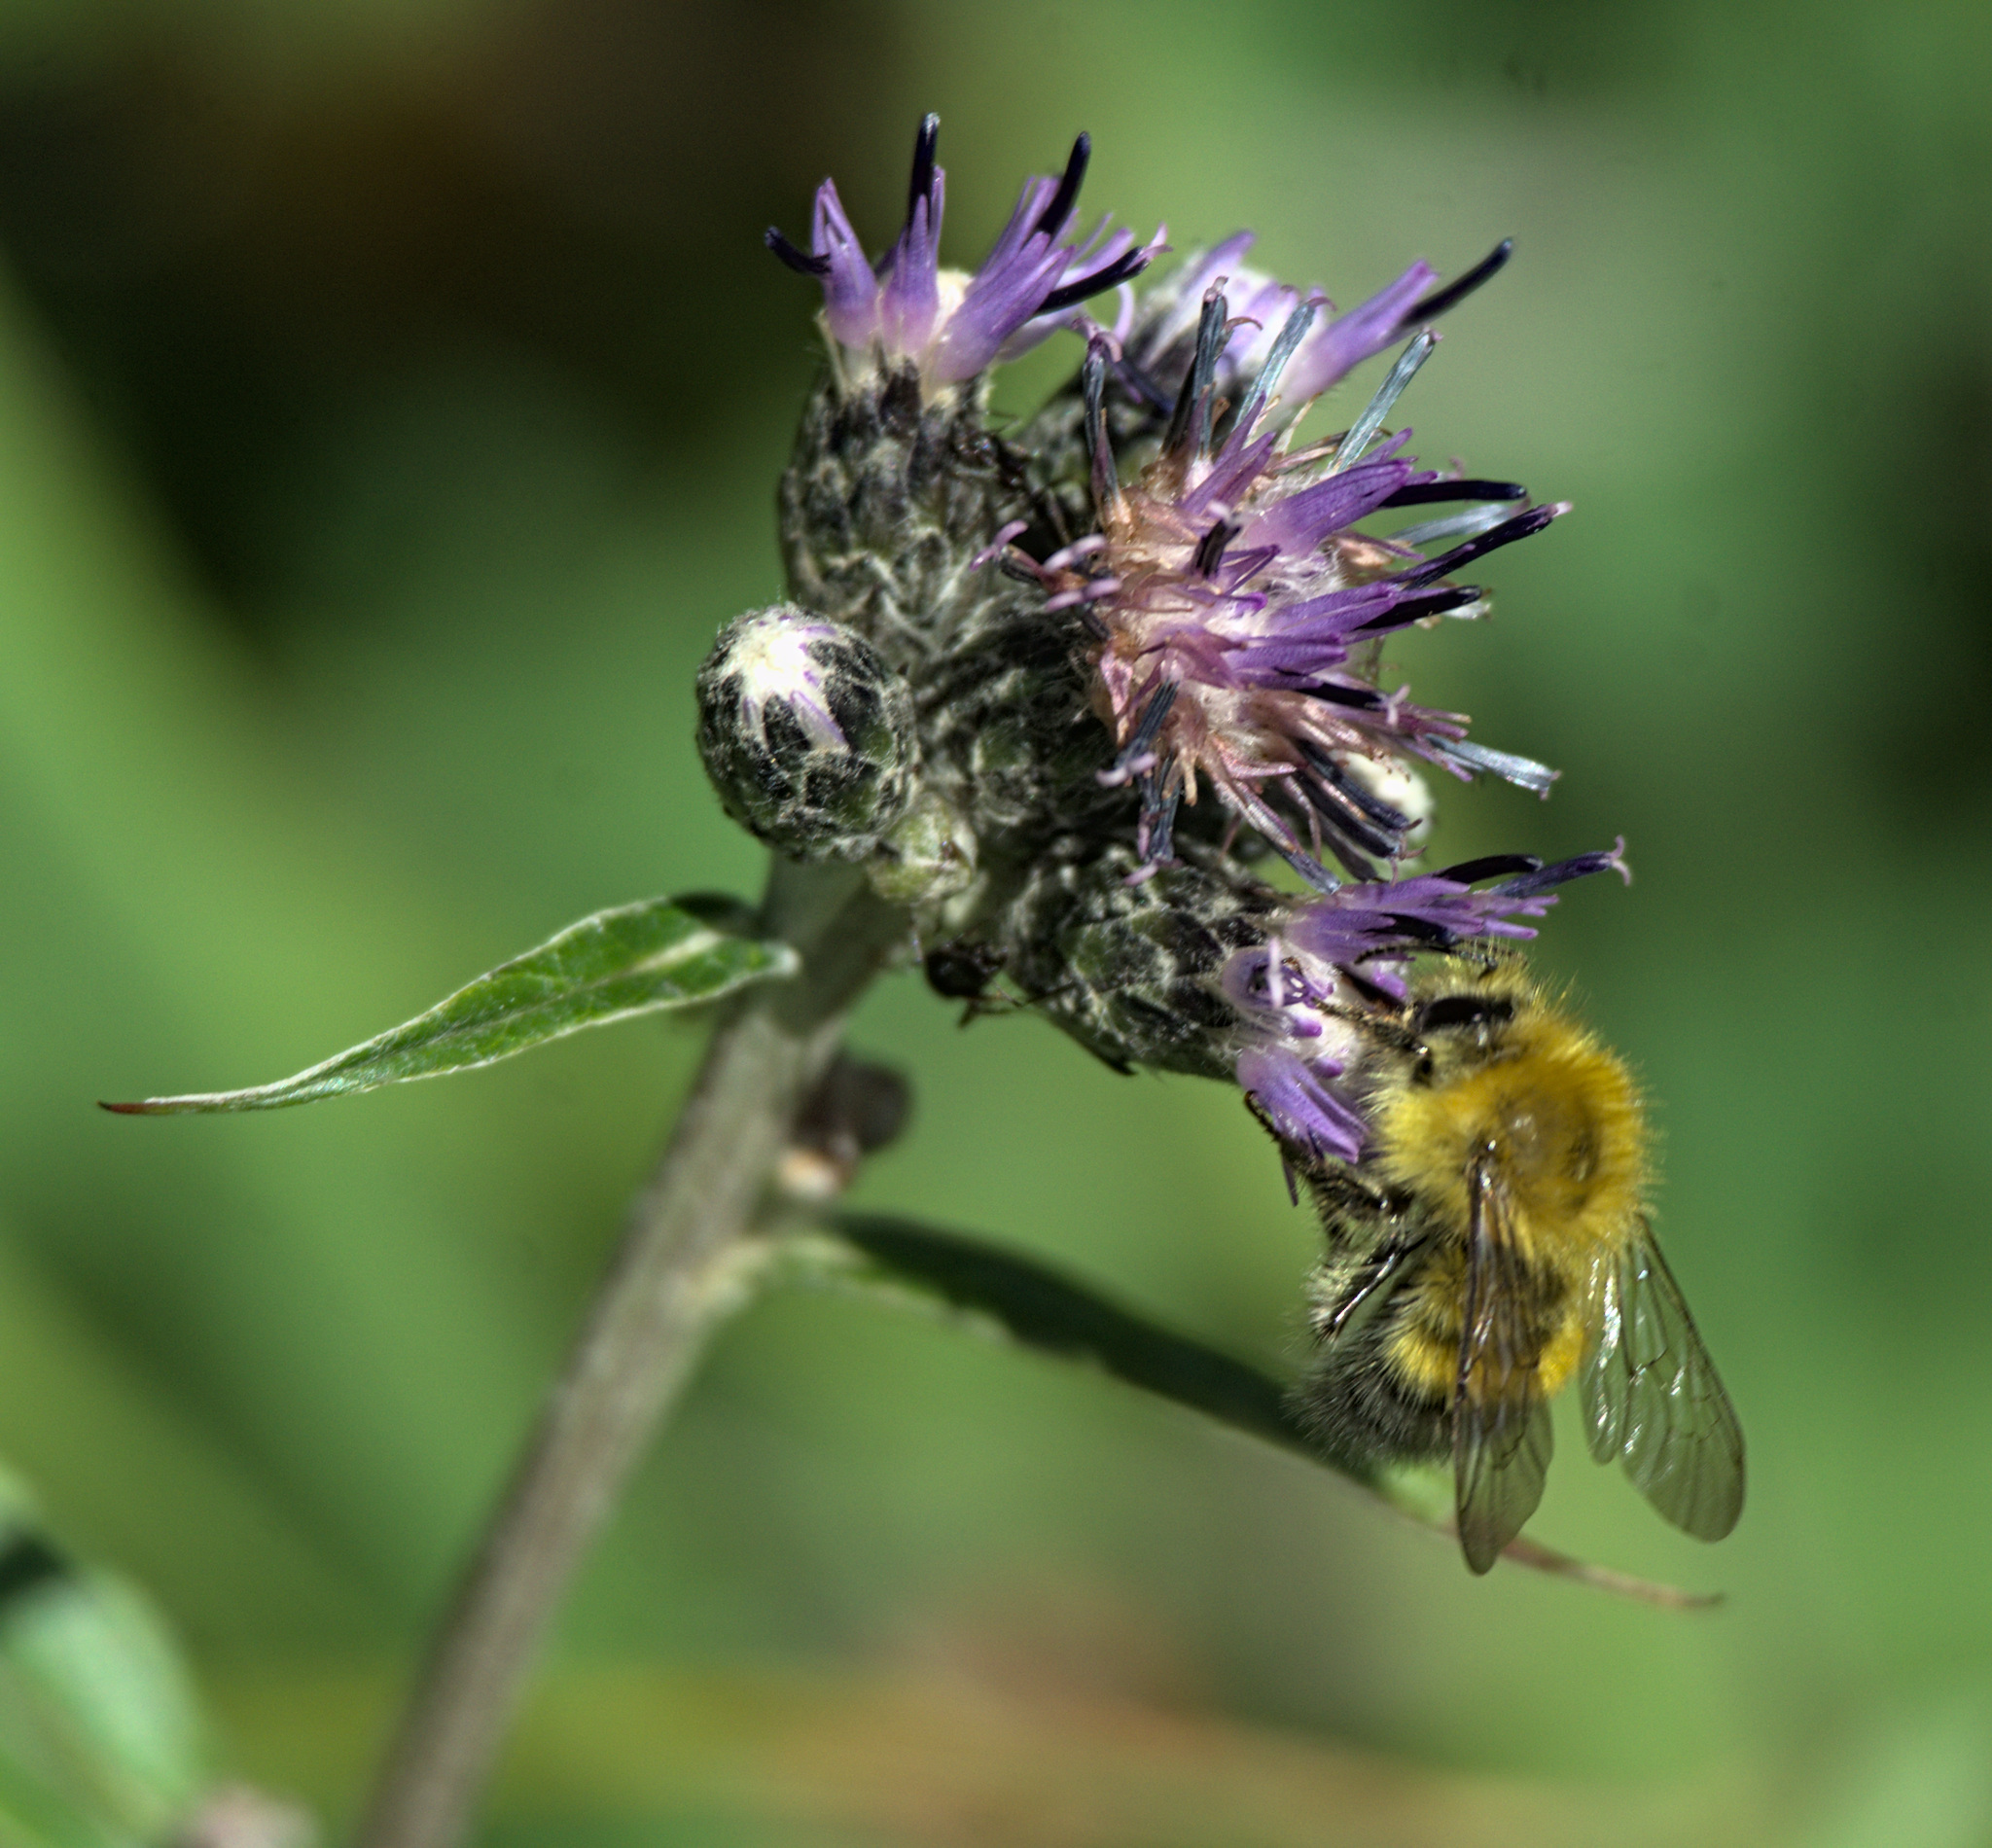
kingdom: Animalia
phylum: Arthropoda
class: Insecta
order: Hymenoptera
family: Apidae
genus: Bombus
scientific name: Bombus modestus
